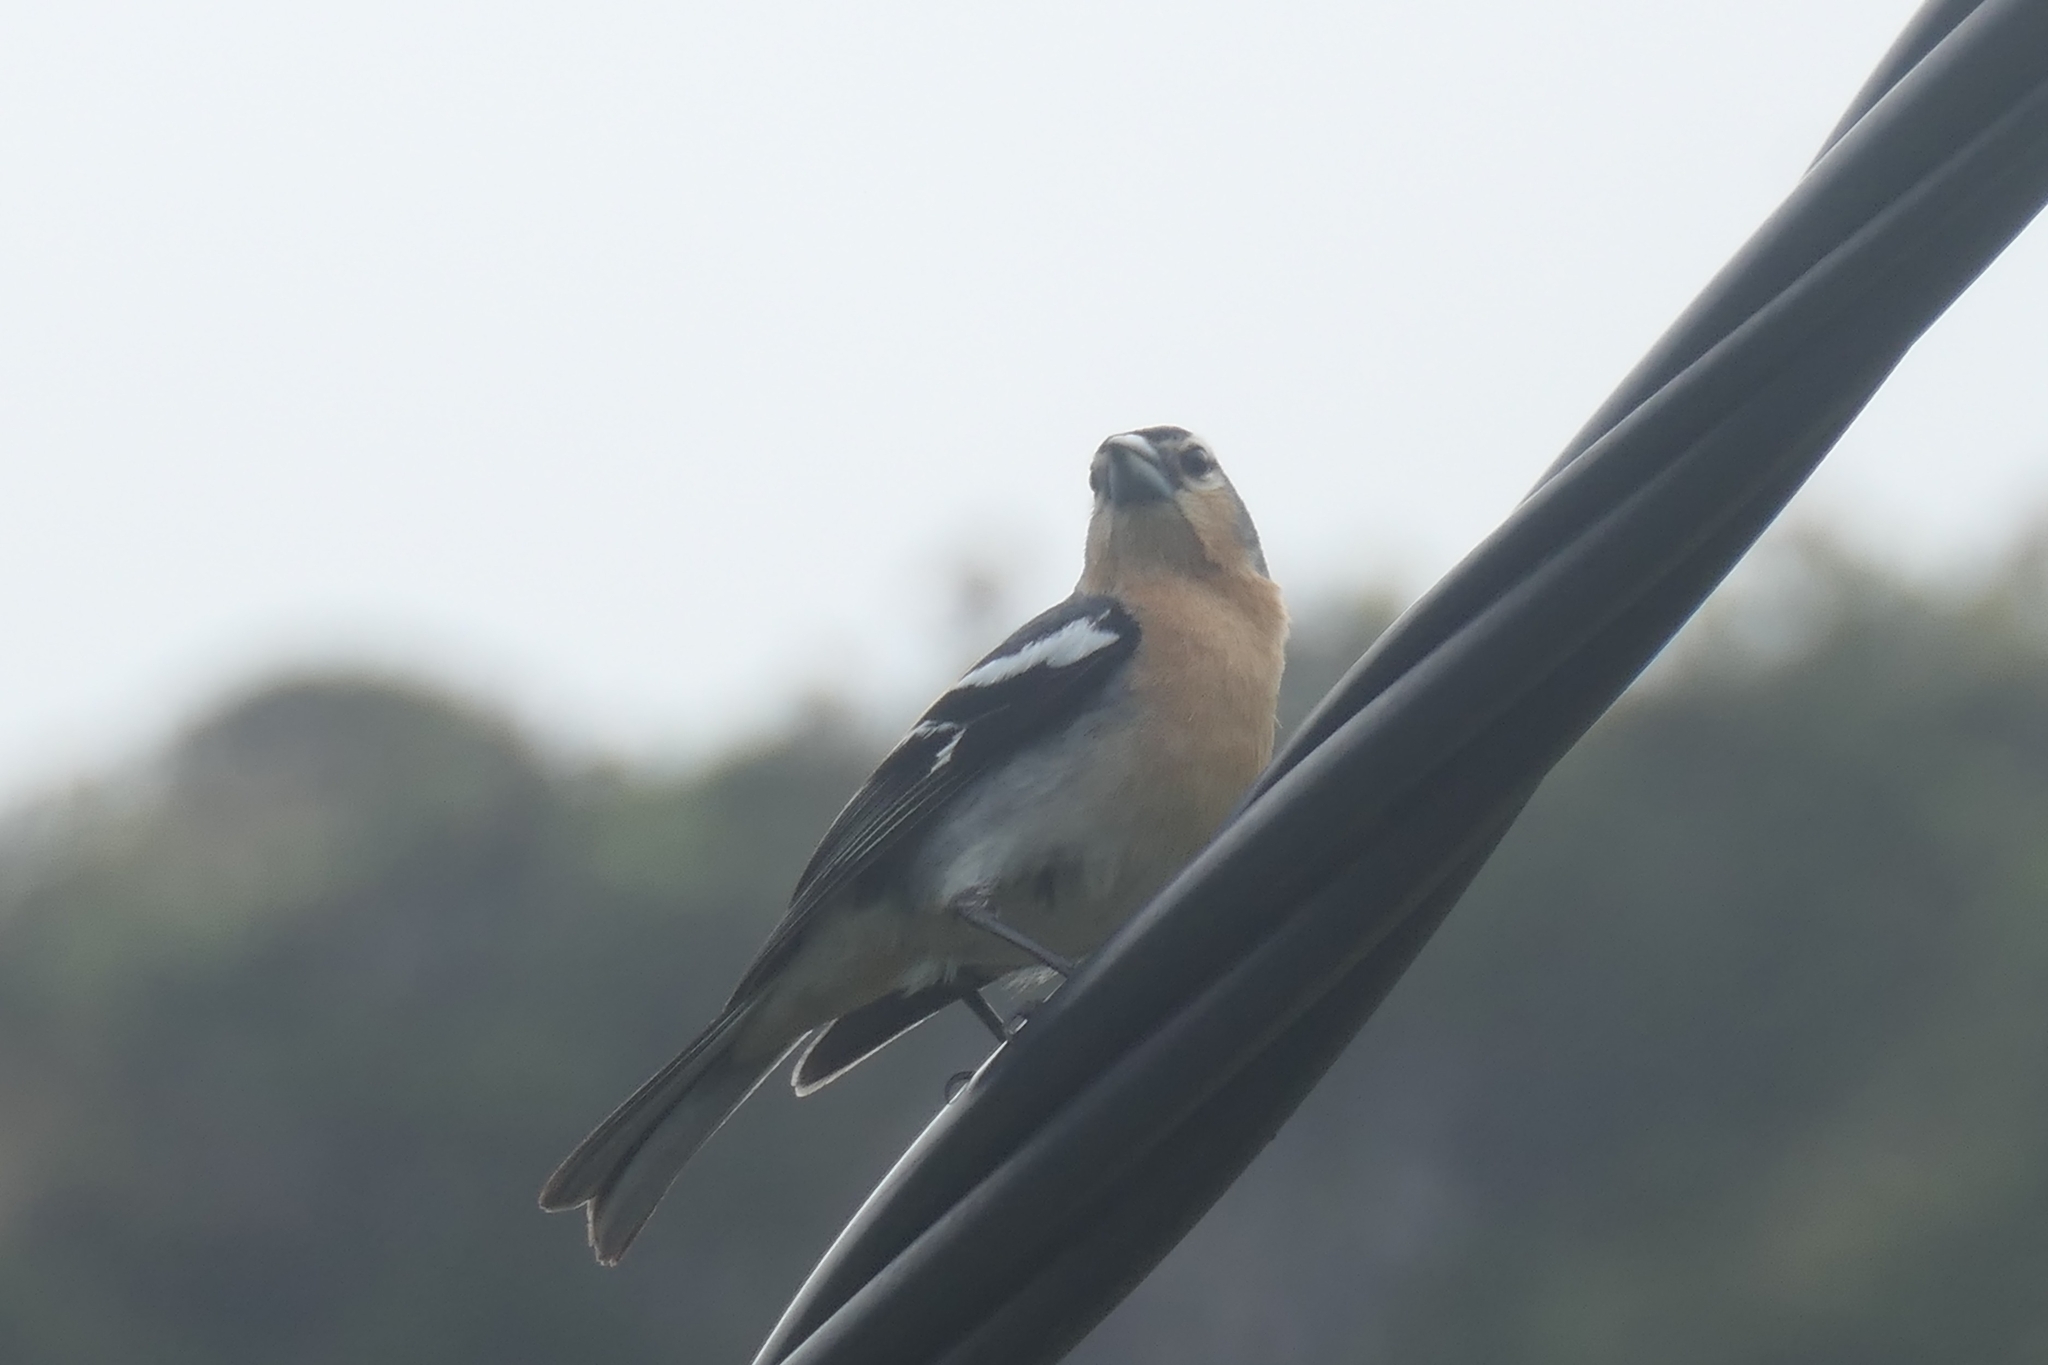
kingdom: Animalia
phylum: Chordata
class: Aves
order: Passeriformes
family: Fringillidae
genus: Fringilla
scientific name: Fringilla moreletti
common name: Azores chaffinch
